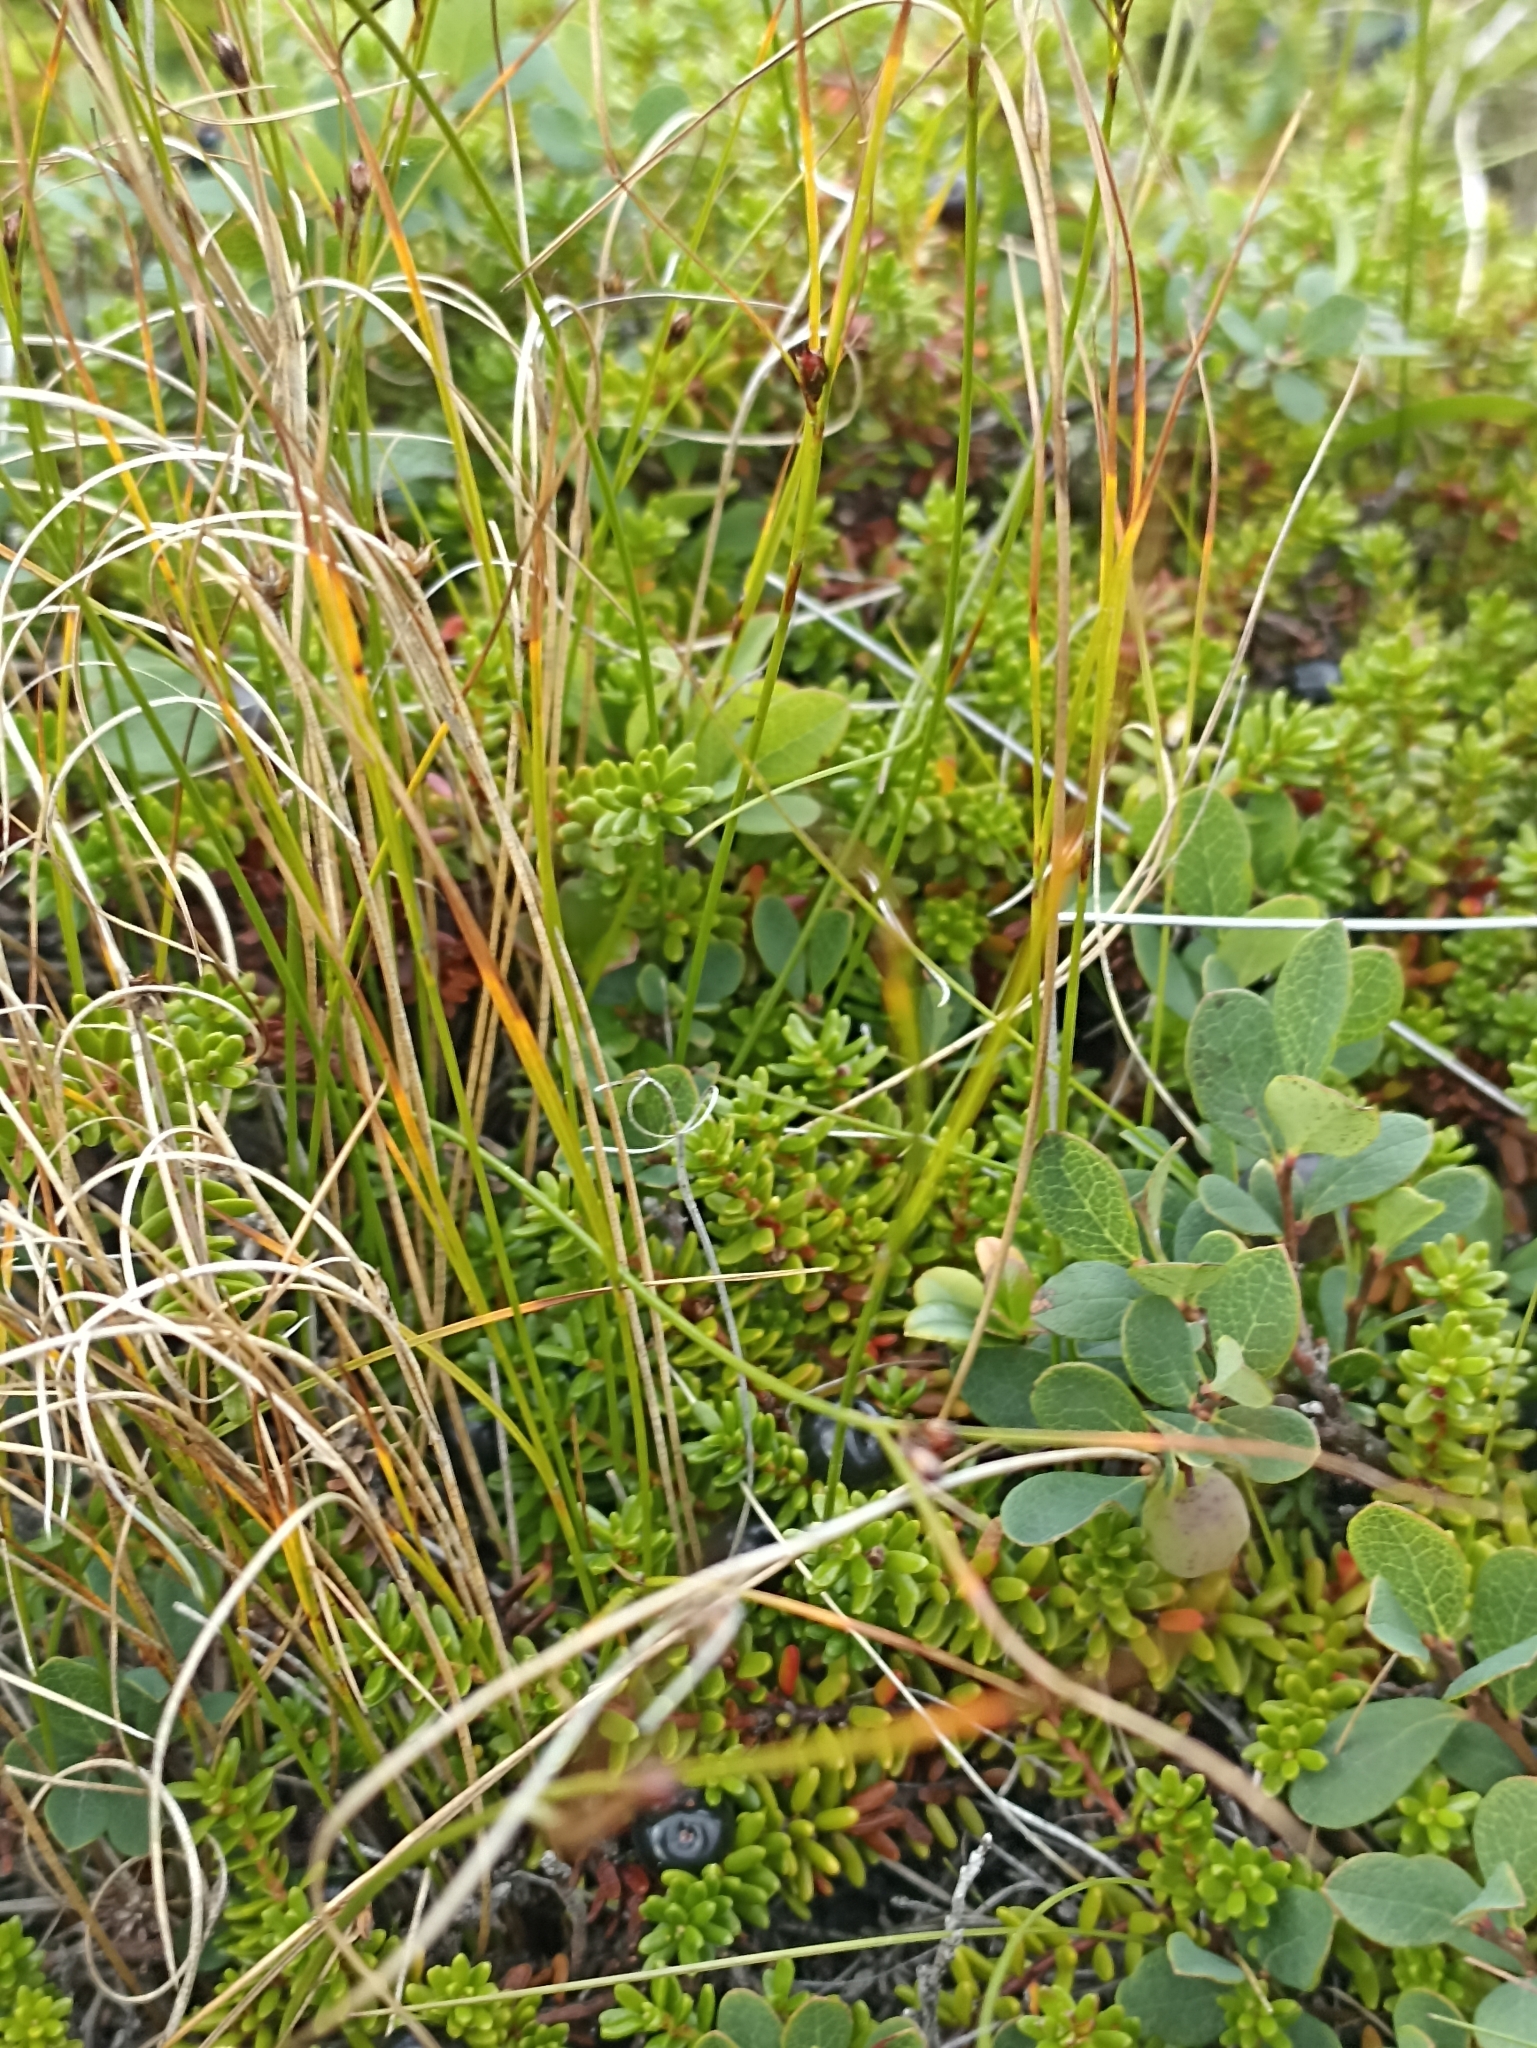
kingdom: Plantae
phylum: Tracheophyta
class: Liliopsida
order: Poales
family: Juncaceae
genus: Oreojuncus
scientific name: Oreojuncus trifidus
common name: Highland rush
